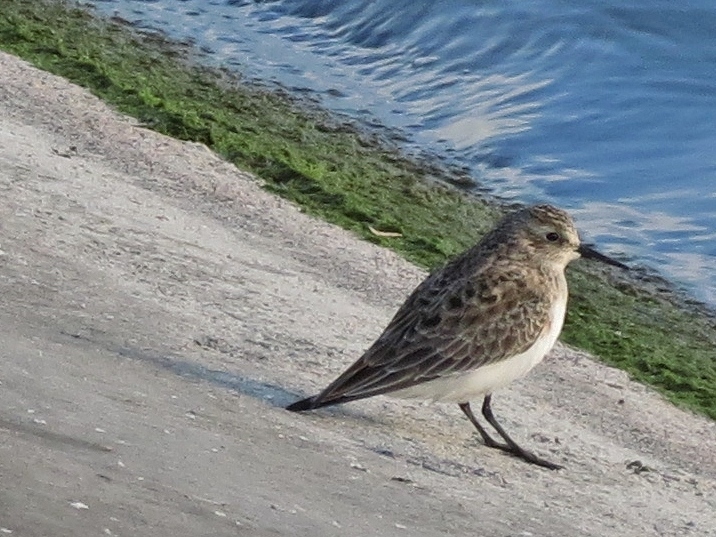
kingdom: Animalia
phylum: Chordata
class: Aves
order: Charadriiformes
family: Scolopacidae
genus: Calidris
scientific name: Calidris pusilla
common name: Semipalmated sandpiper
